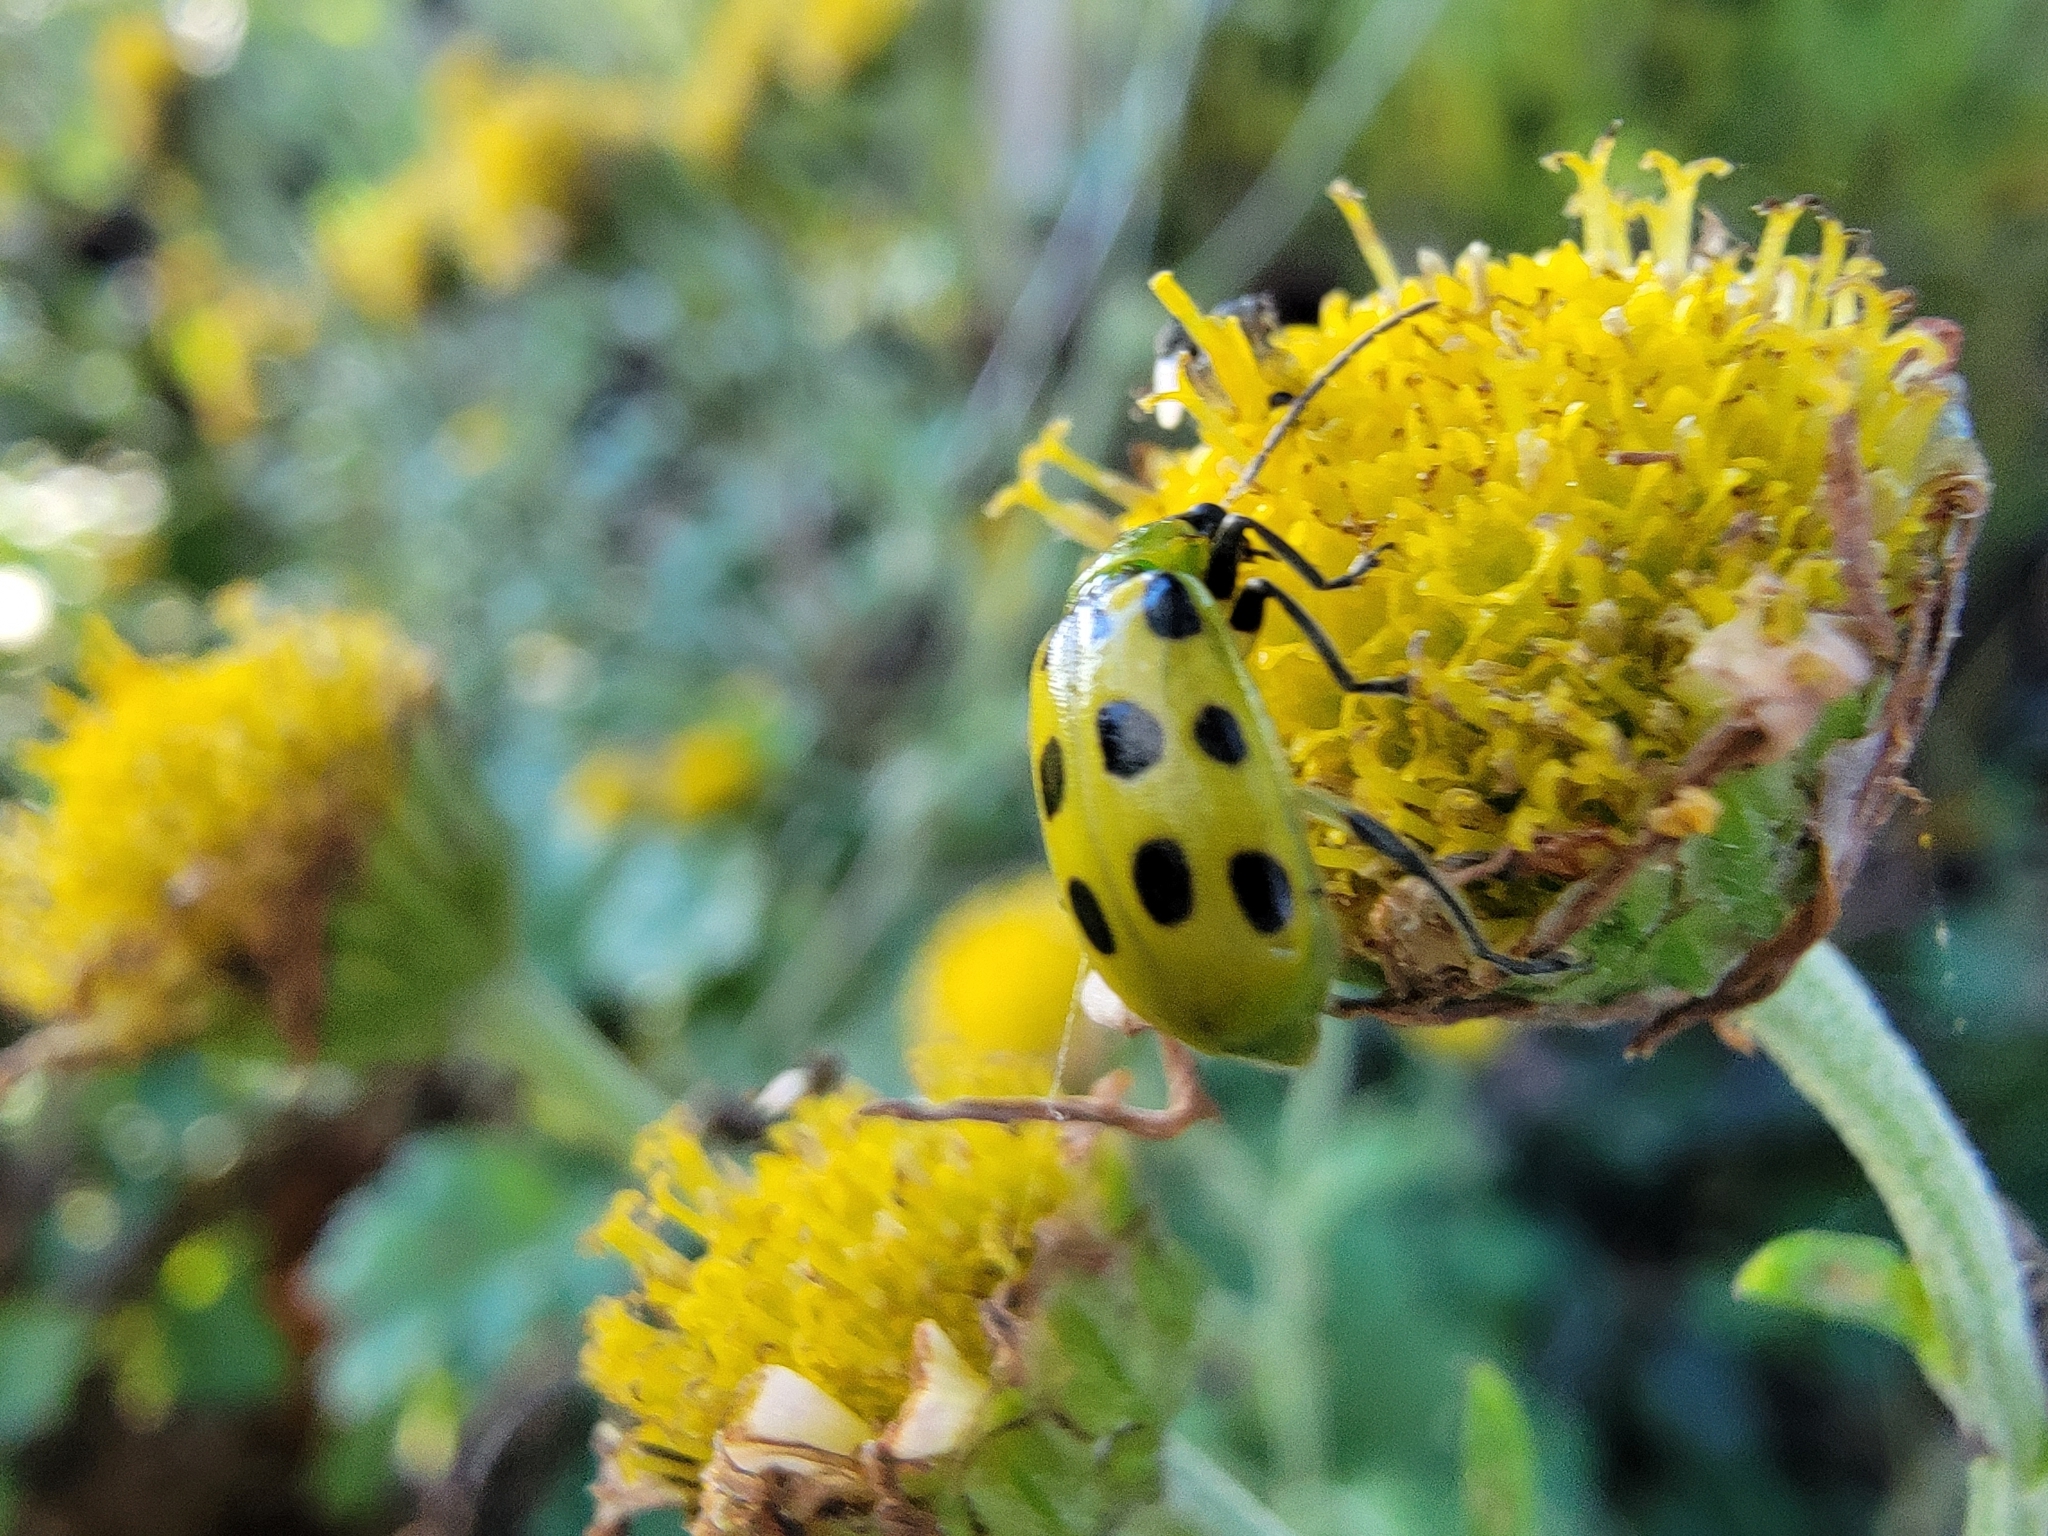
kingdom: Animalia
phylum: Arthropoda
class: Insecta
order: Coleoptera
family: Chrysomelidae
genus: Diabrotica
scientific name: Diabrotica undecimpunctata
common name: Spotted cucumber beetle
